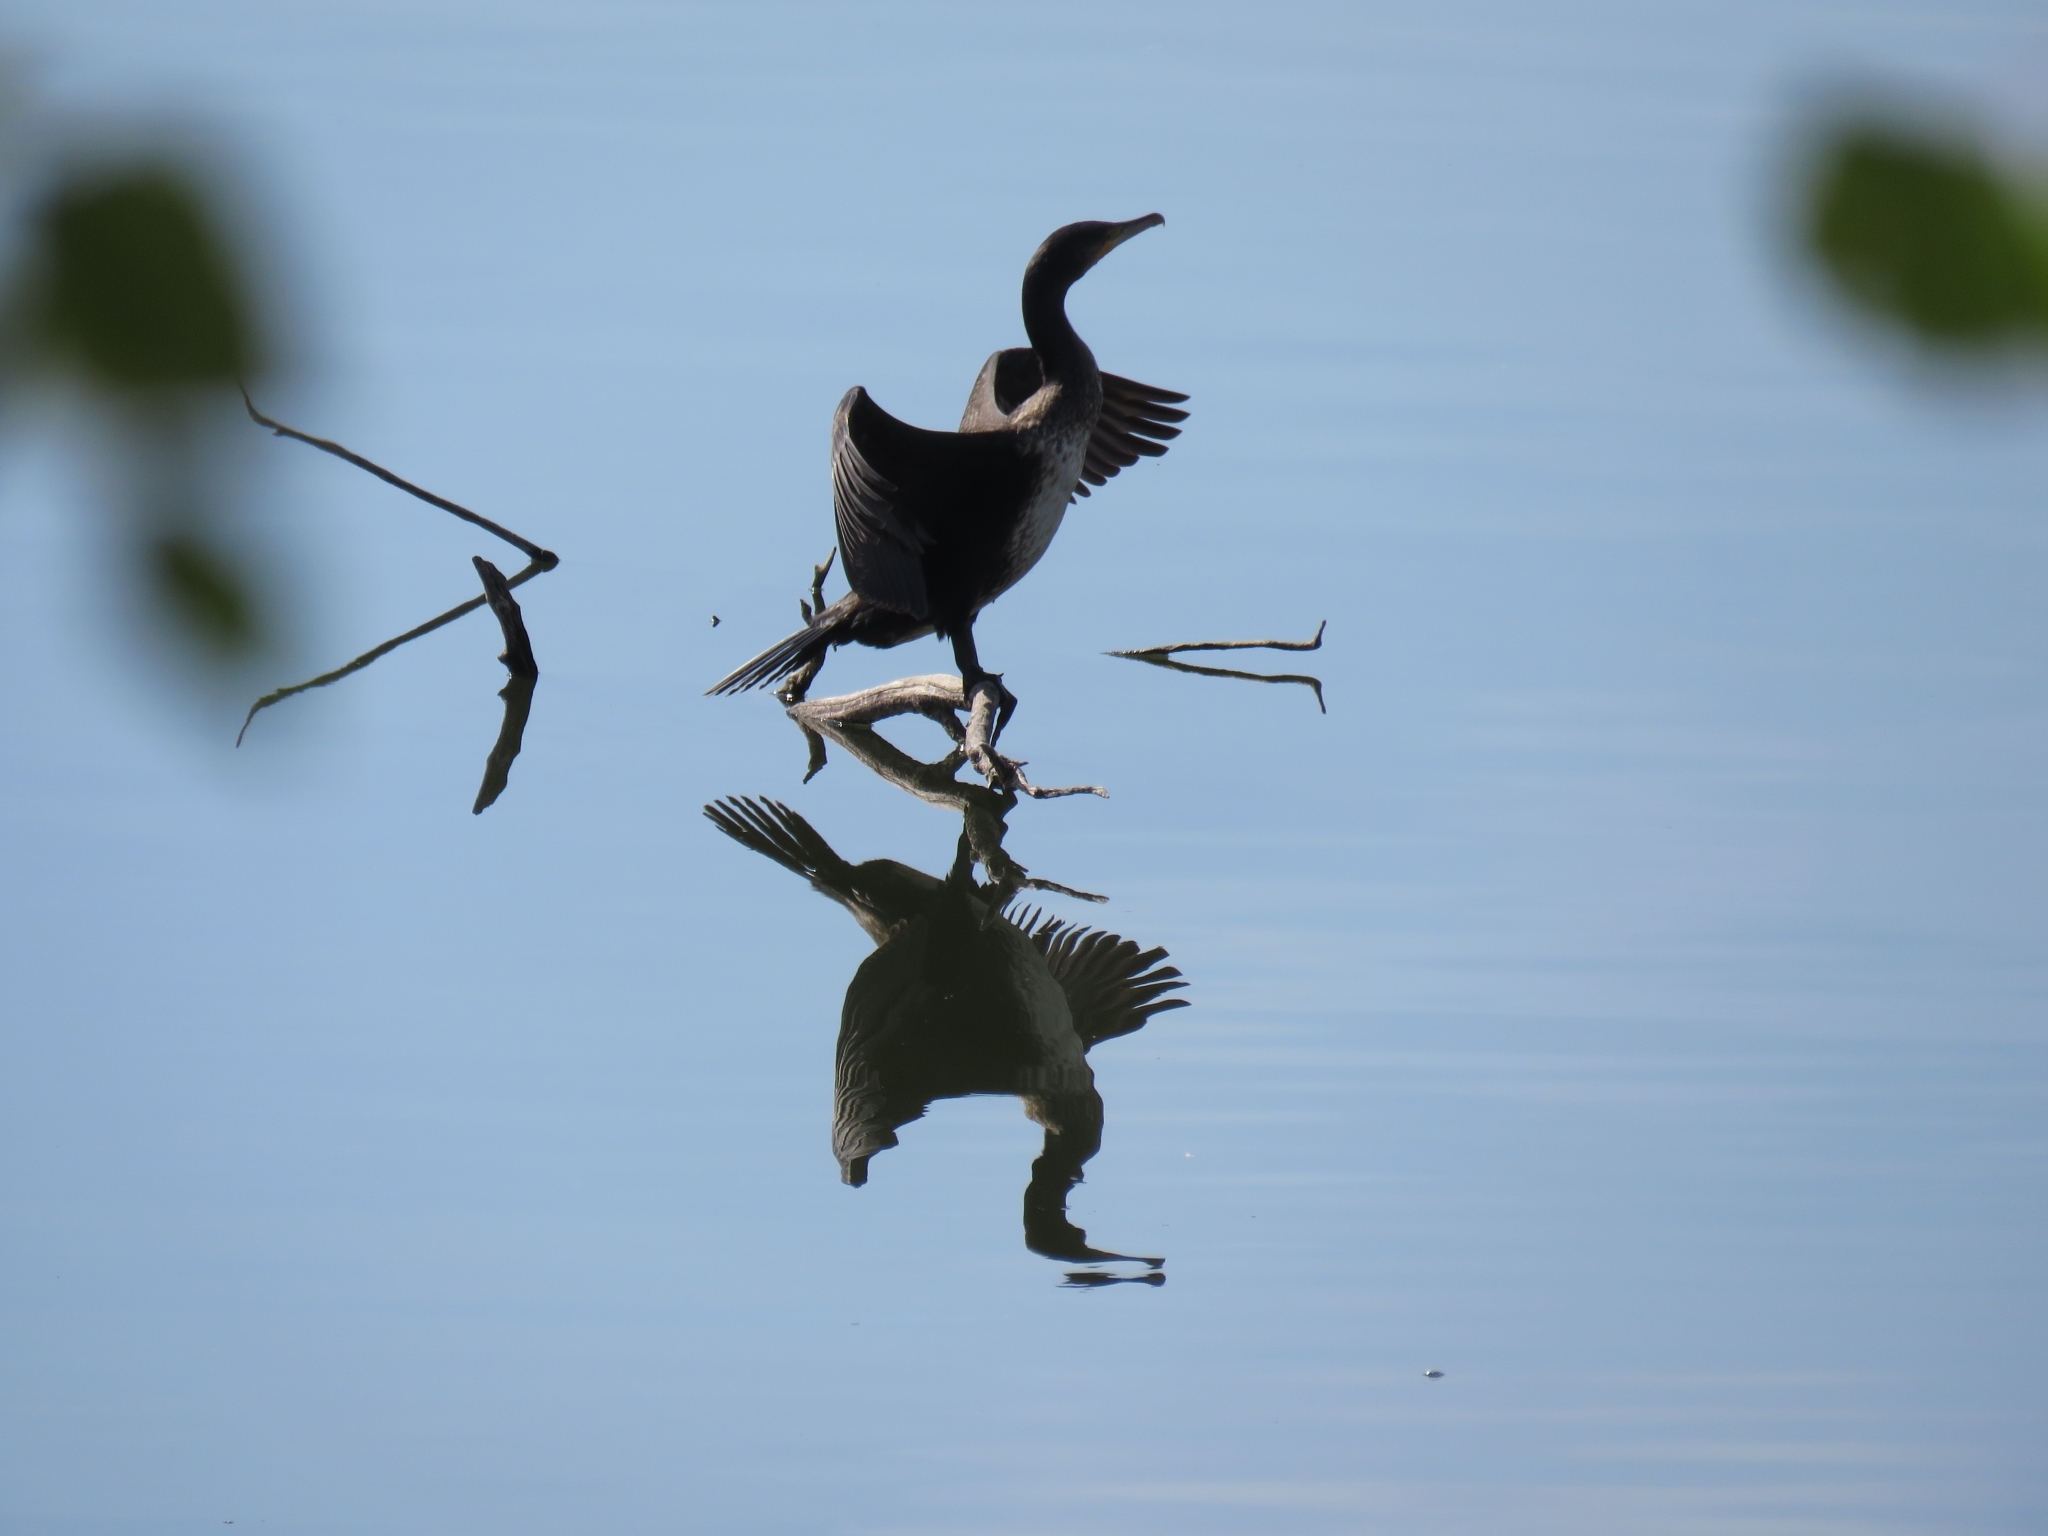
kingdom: Animalia
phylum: Chordata
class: Aves
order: Suliformes
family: Phalacrocoracidae
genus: Phalacrocorax
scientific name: Phalacrocorax carbo
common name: Great cormorant
